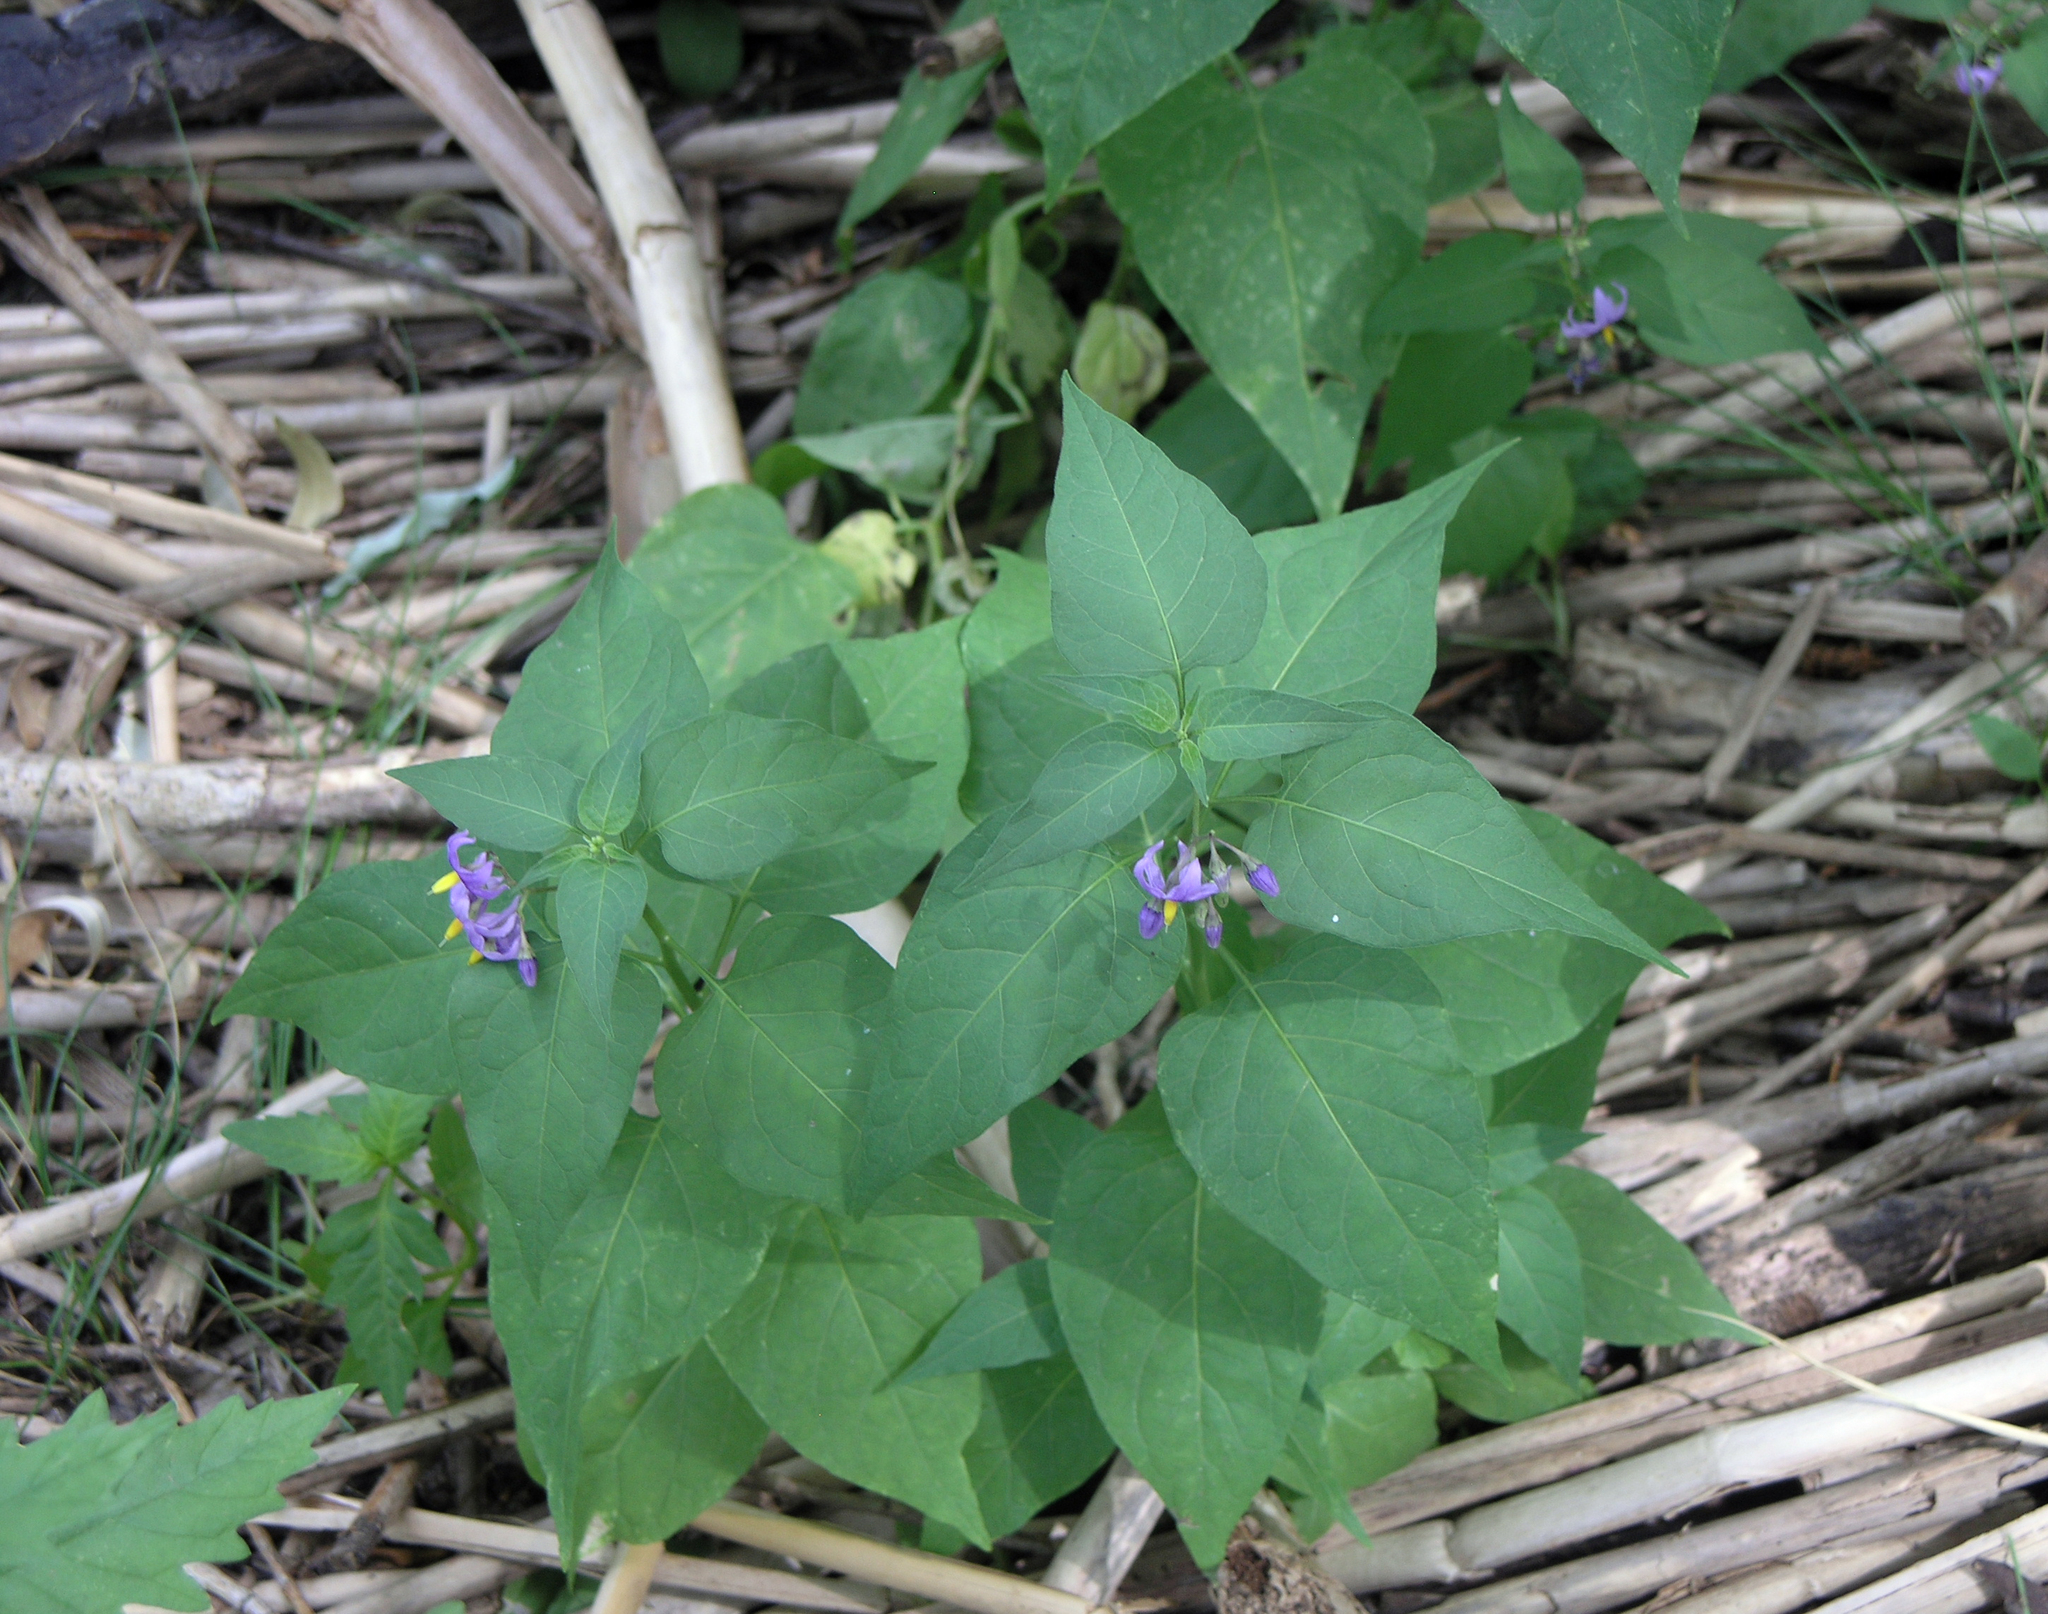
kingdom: Plantae
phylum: Tracheophyta
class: Magnoliopsida
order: Solanales
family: Solanaceae
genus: Solanum
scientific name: Solanum dulcamara
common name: Climbing nightshade
